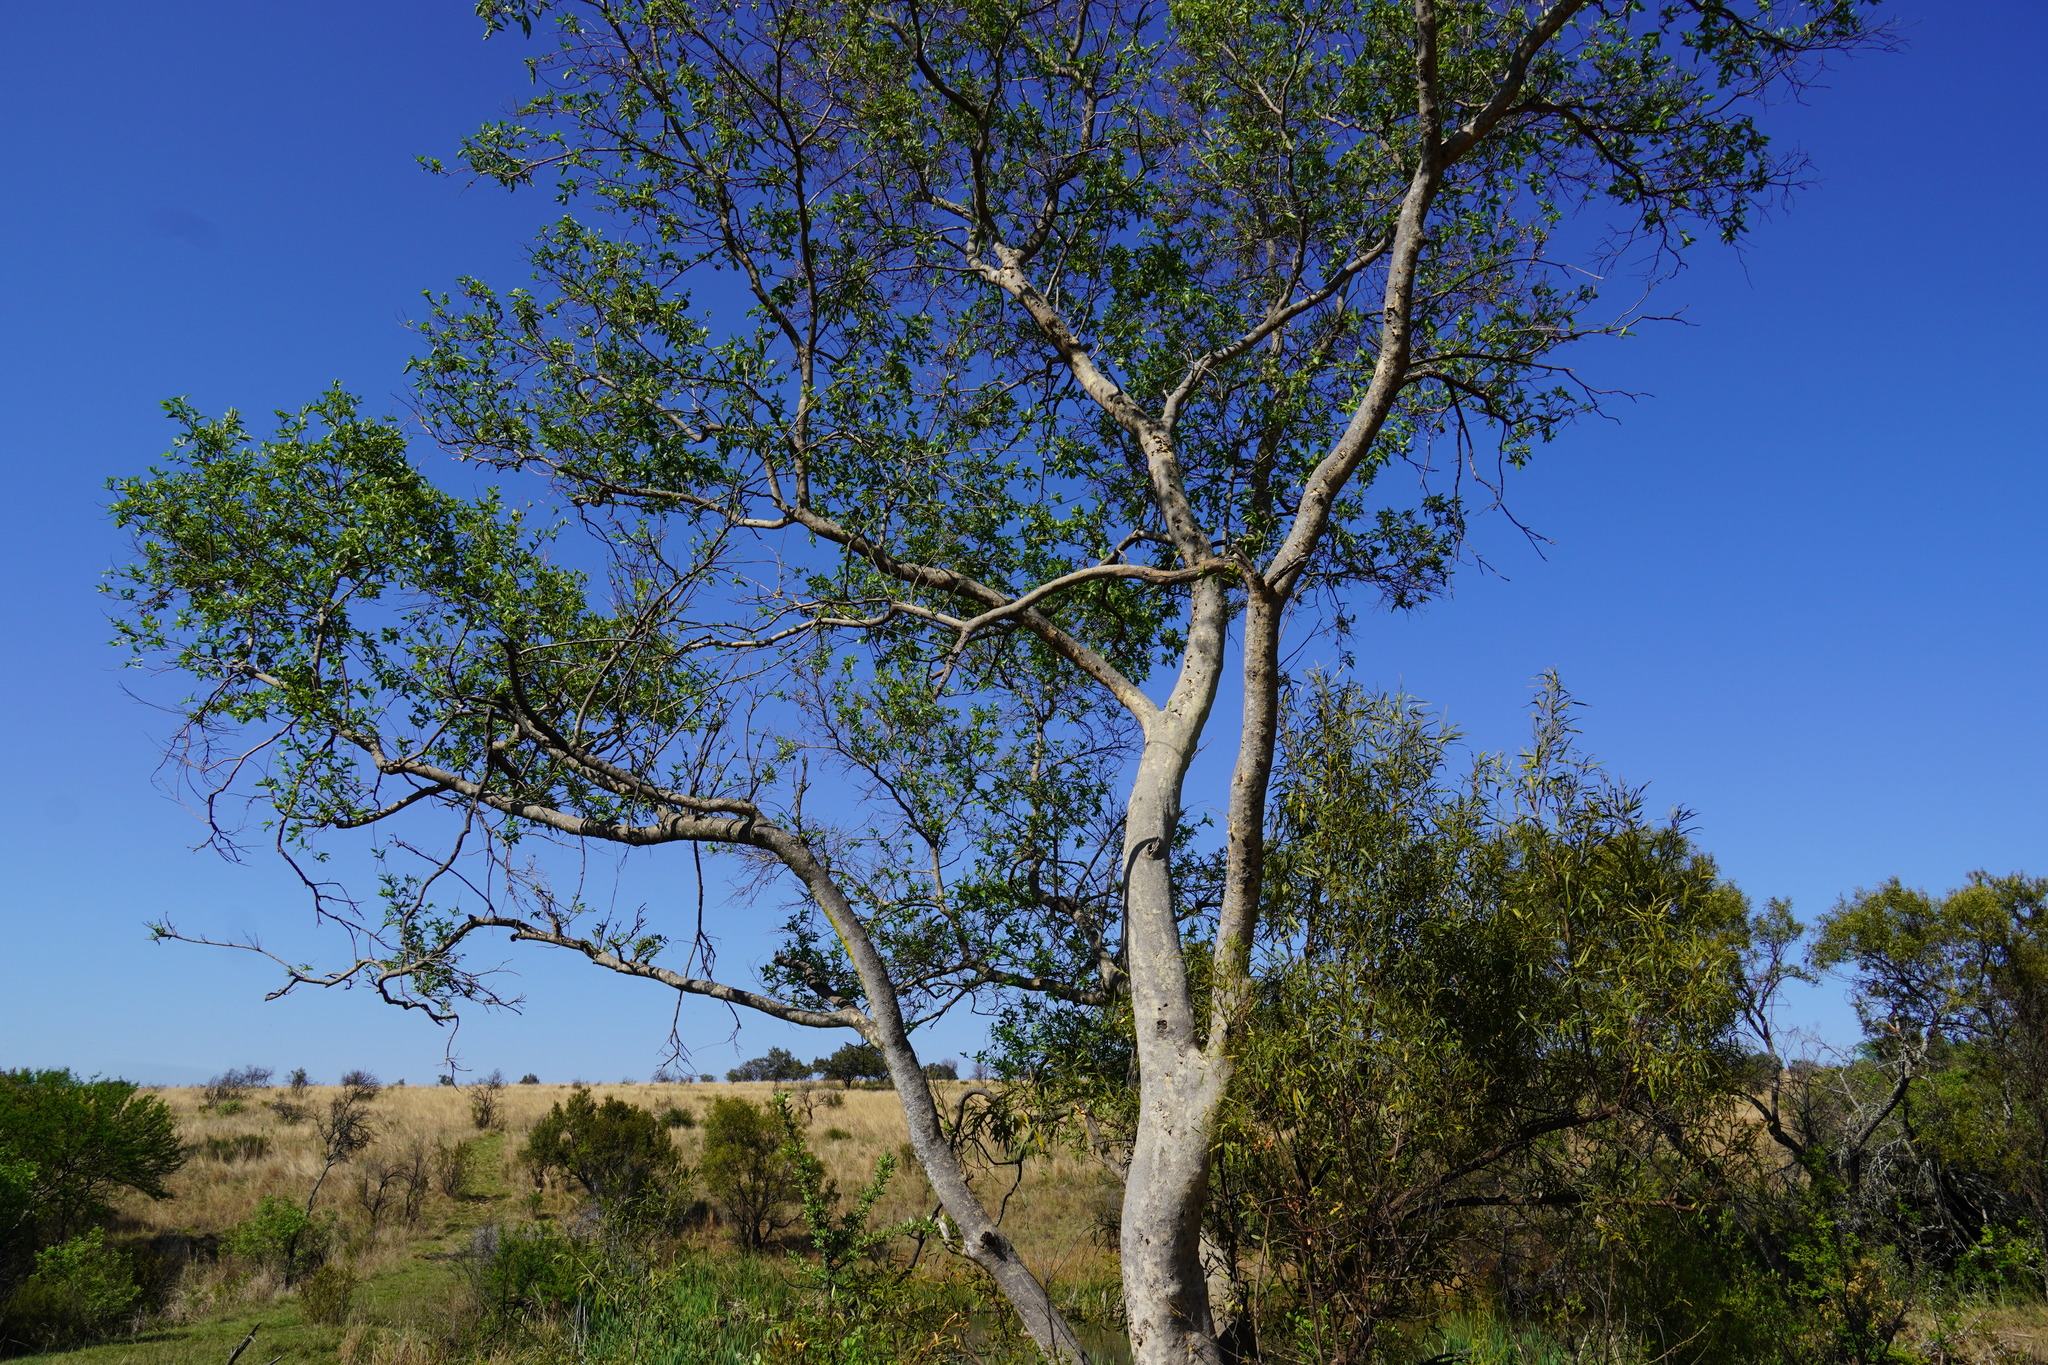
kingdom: Plantae
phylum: Tracheophyta
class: Magnoliopsida
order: Myrtales
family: Combretaceae
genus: Combretum
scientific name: Combretum erythrophyllum
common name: Bush-willow
